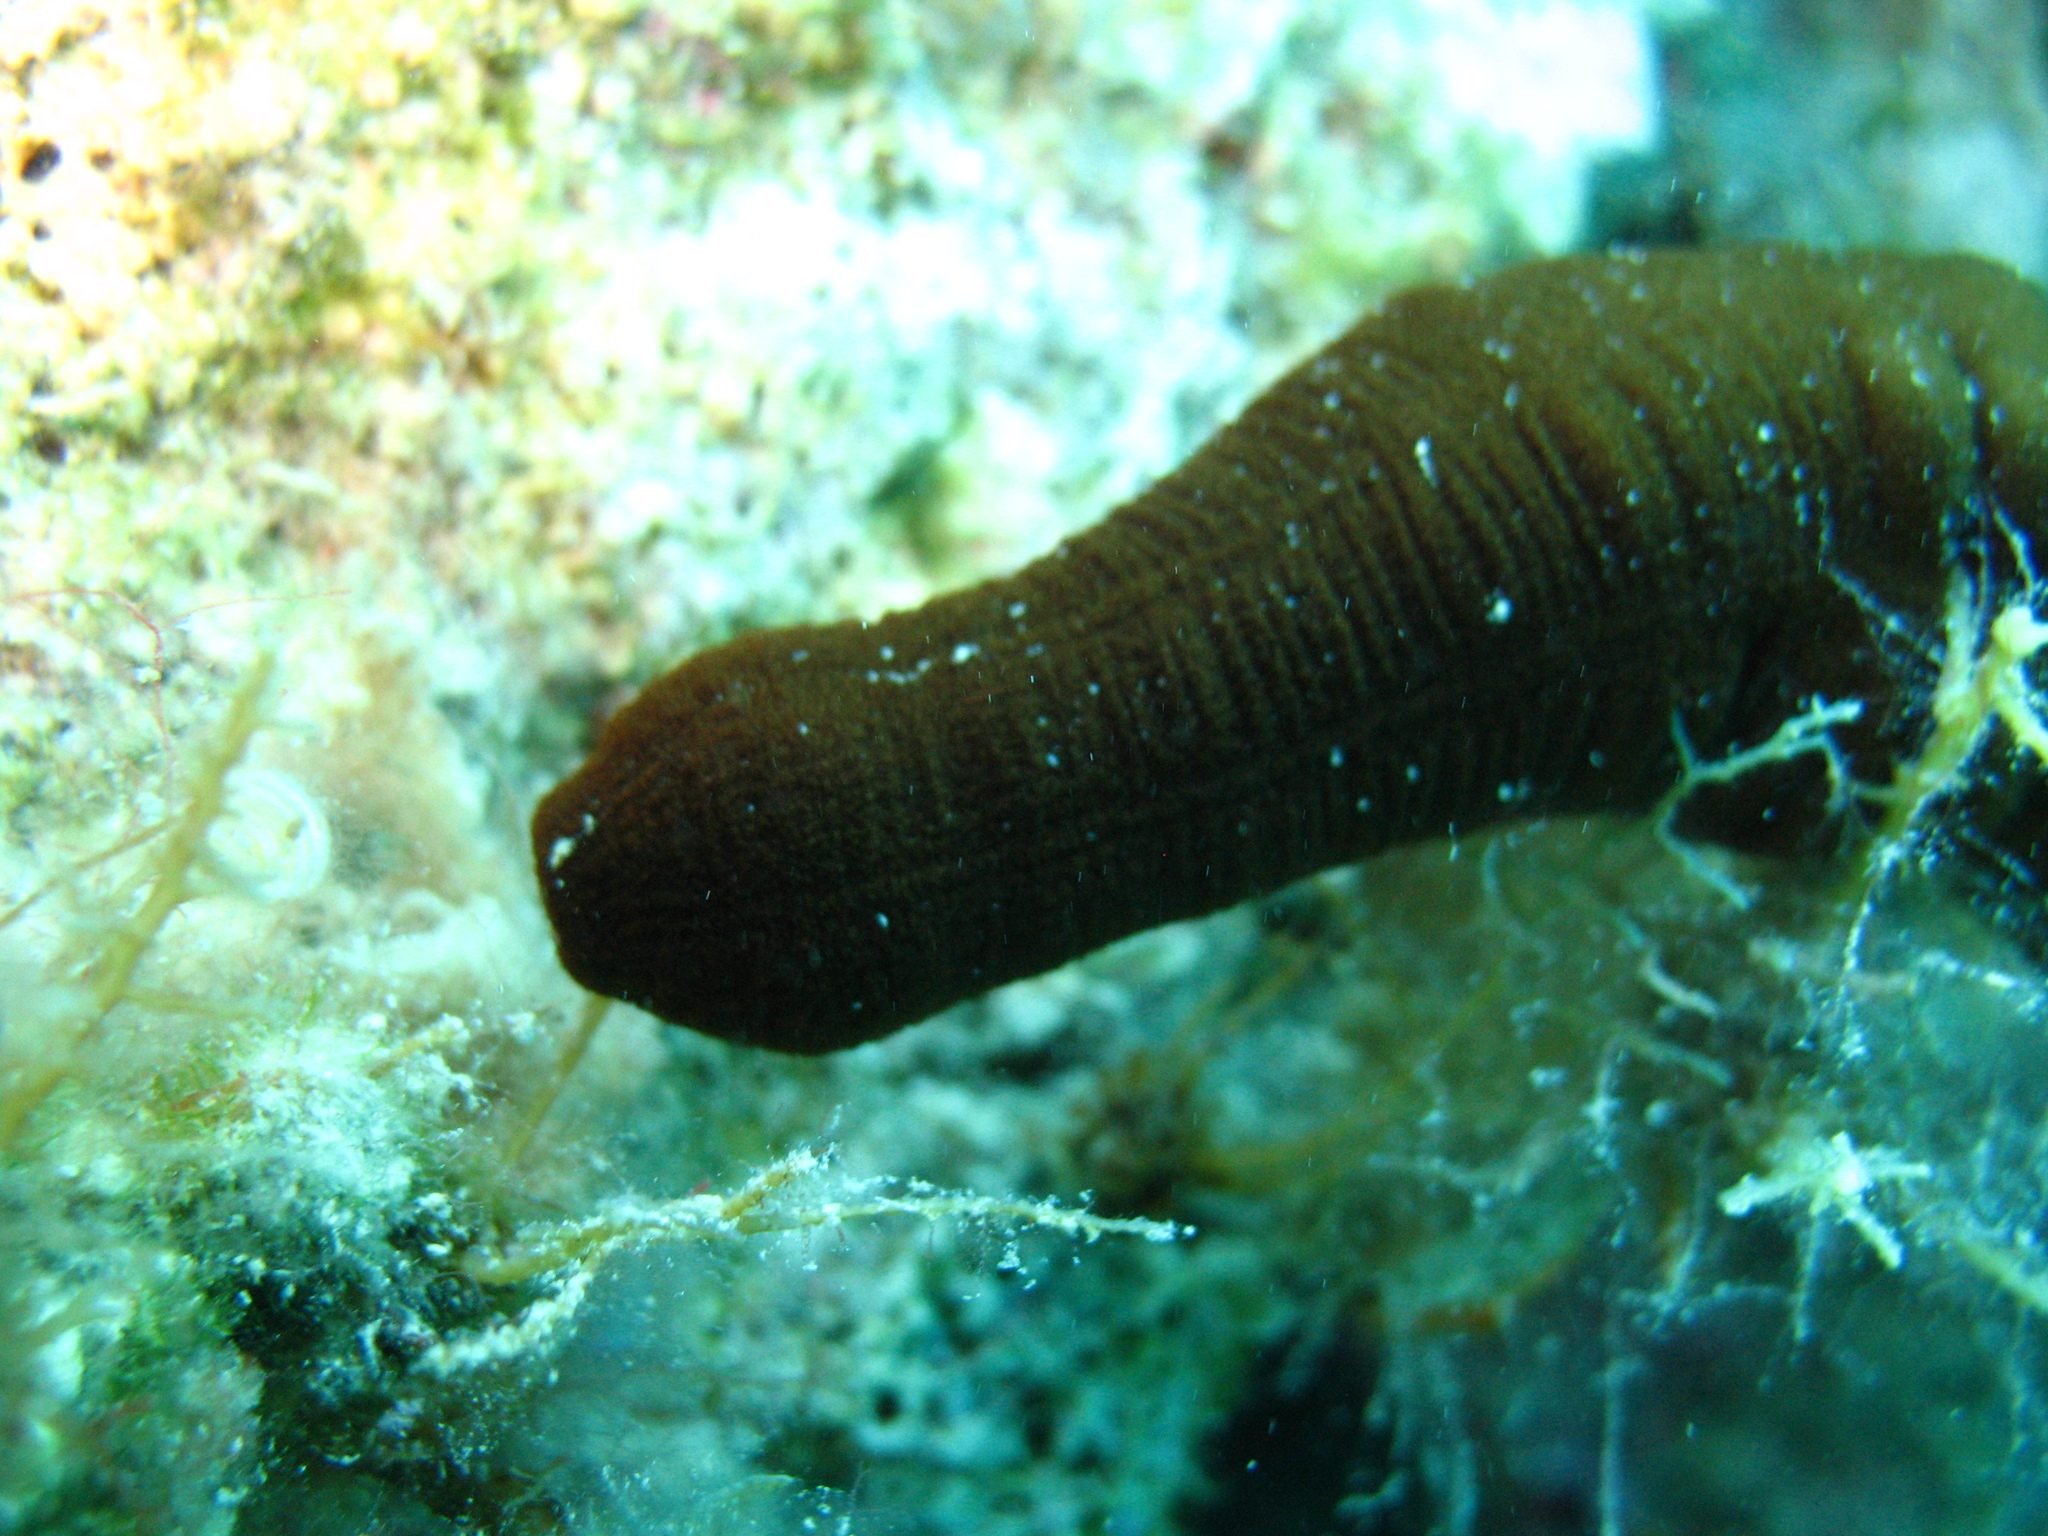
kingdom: Animalia
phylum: Echinodermata
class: Holothuroidea
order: Apodida
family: Synaptidae
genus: Synaptula
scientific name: Synaptula reciprocans
